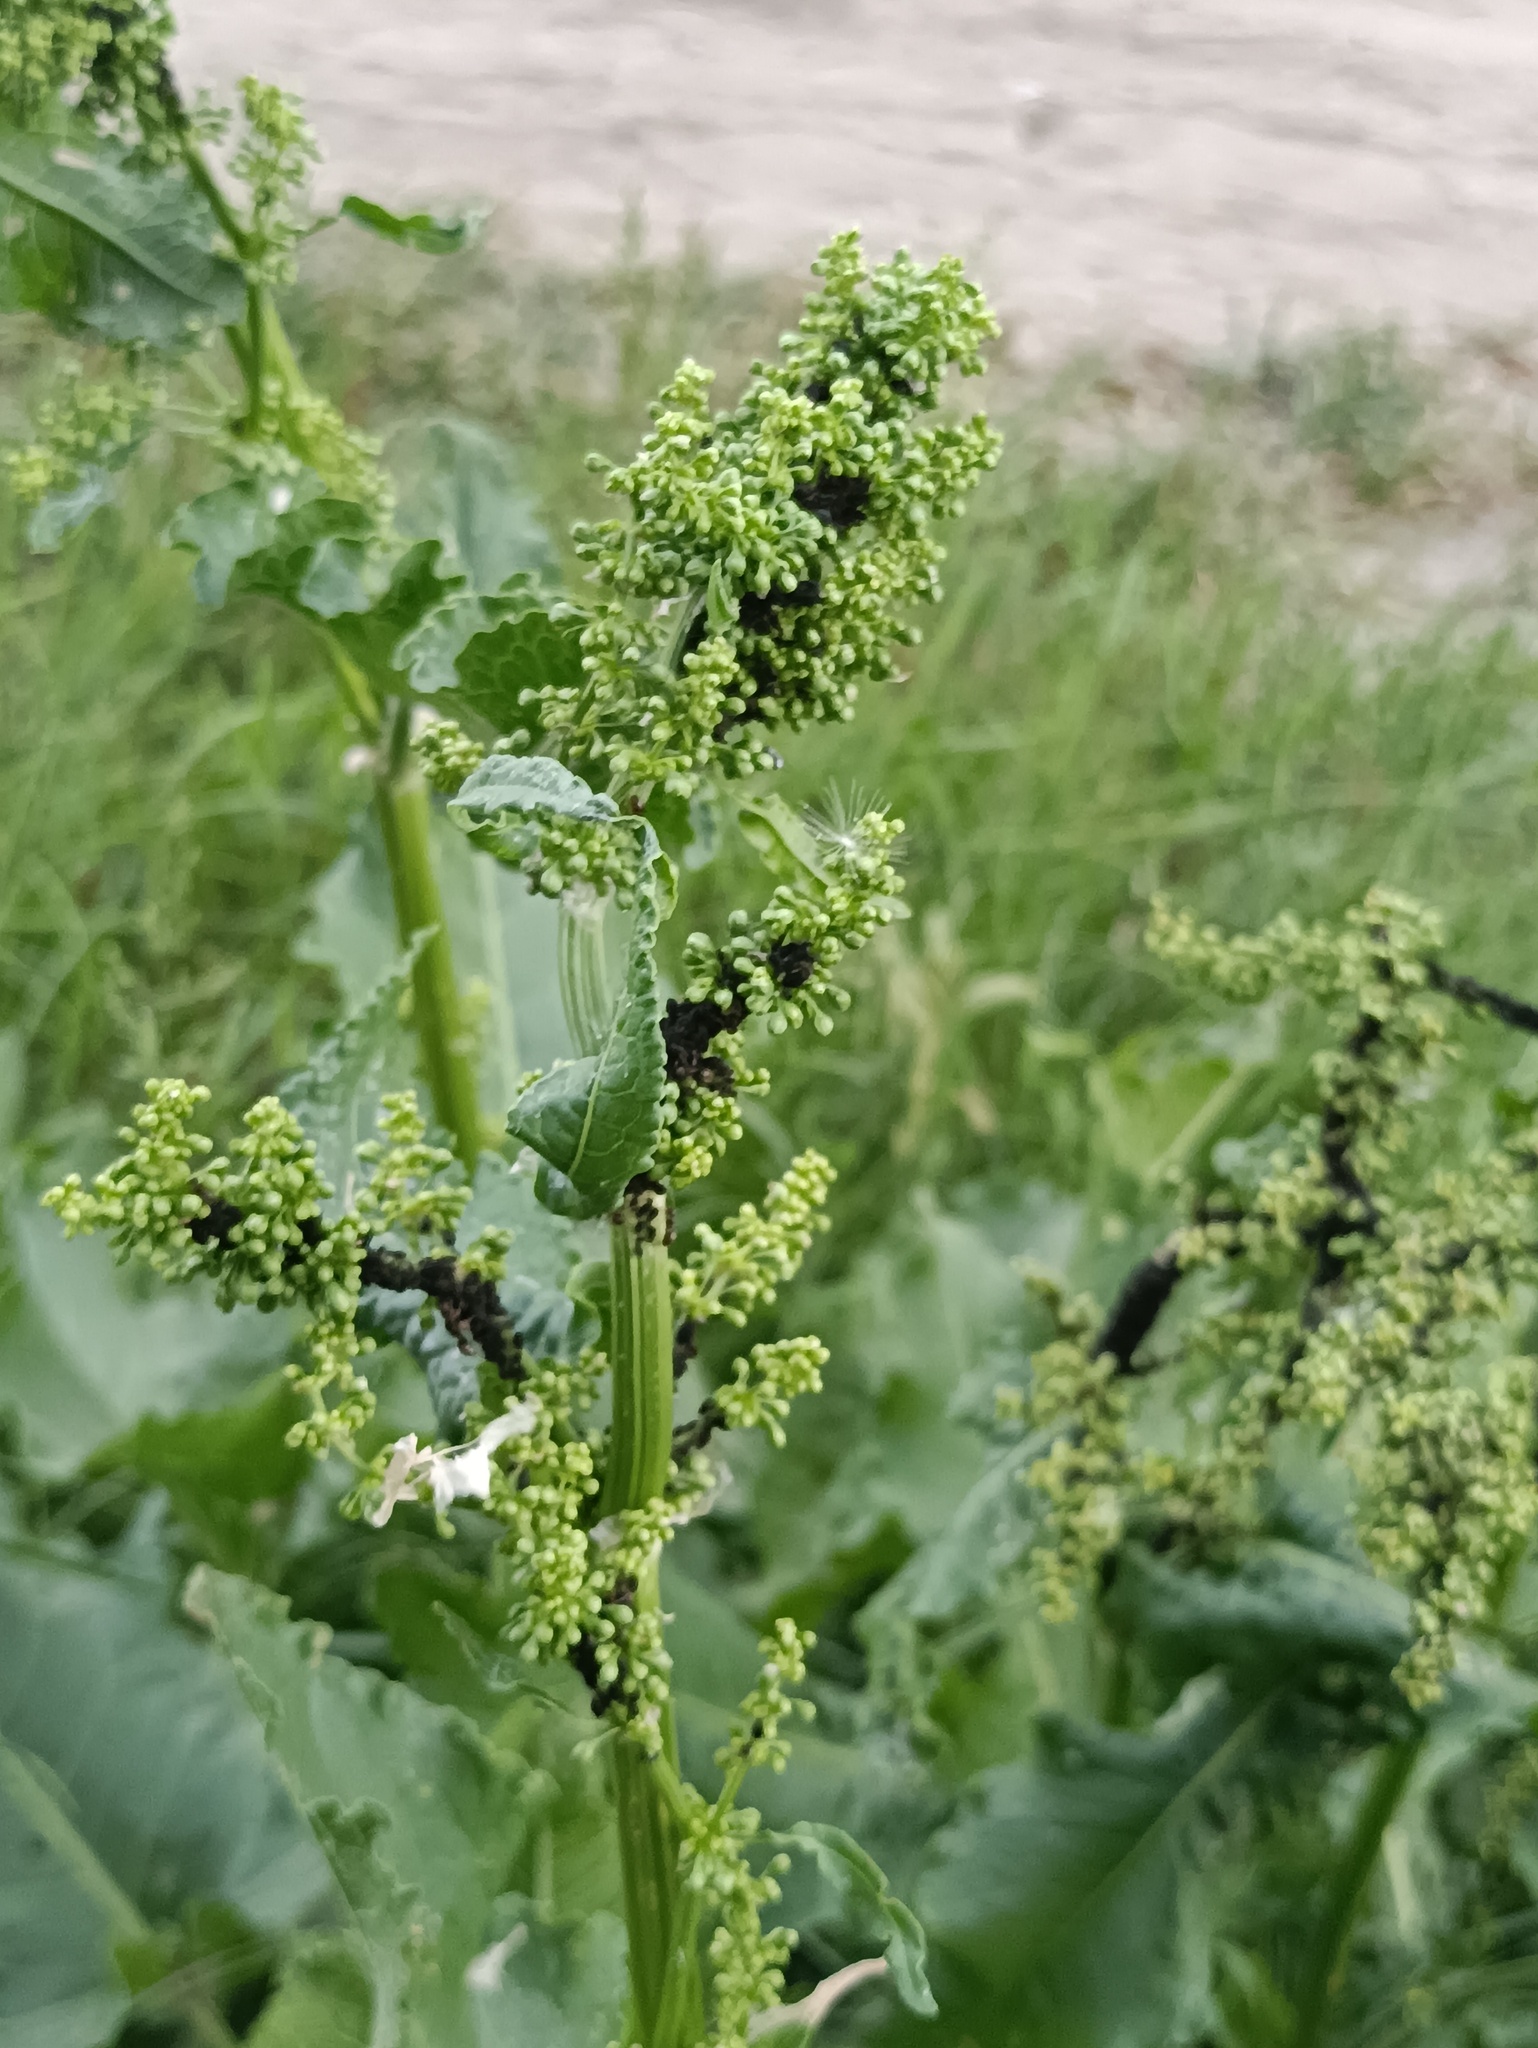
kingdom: Plantae
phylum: Tracheophyta
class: Magnoliopsida
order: Caryophyllales
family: Polygonaceae
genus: Rumex
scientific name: Rumex confertus
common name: Russian dock
